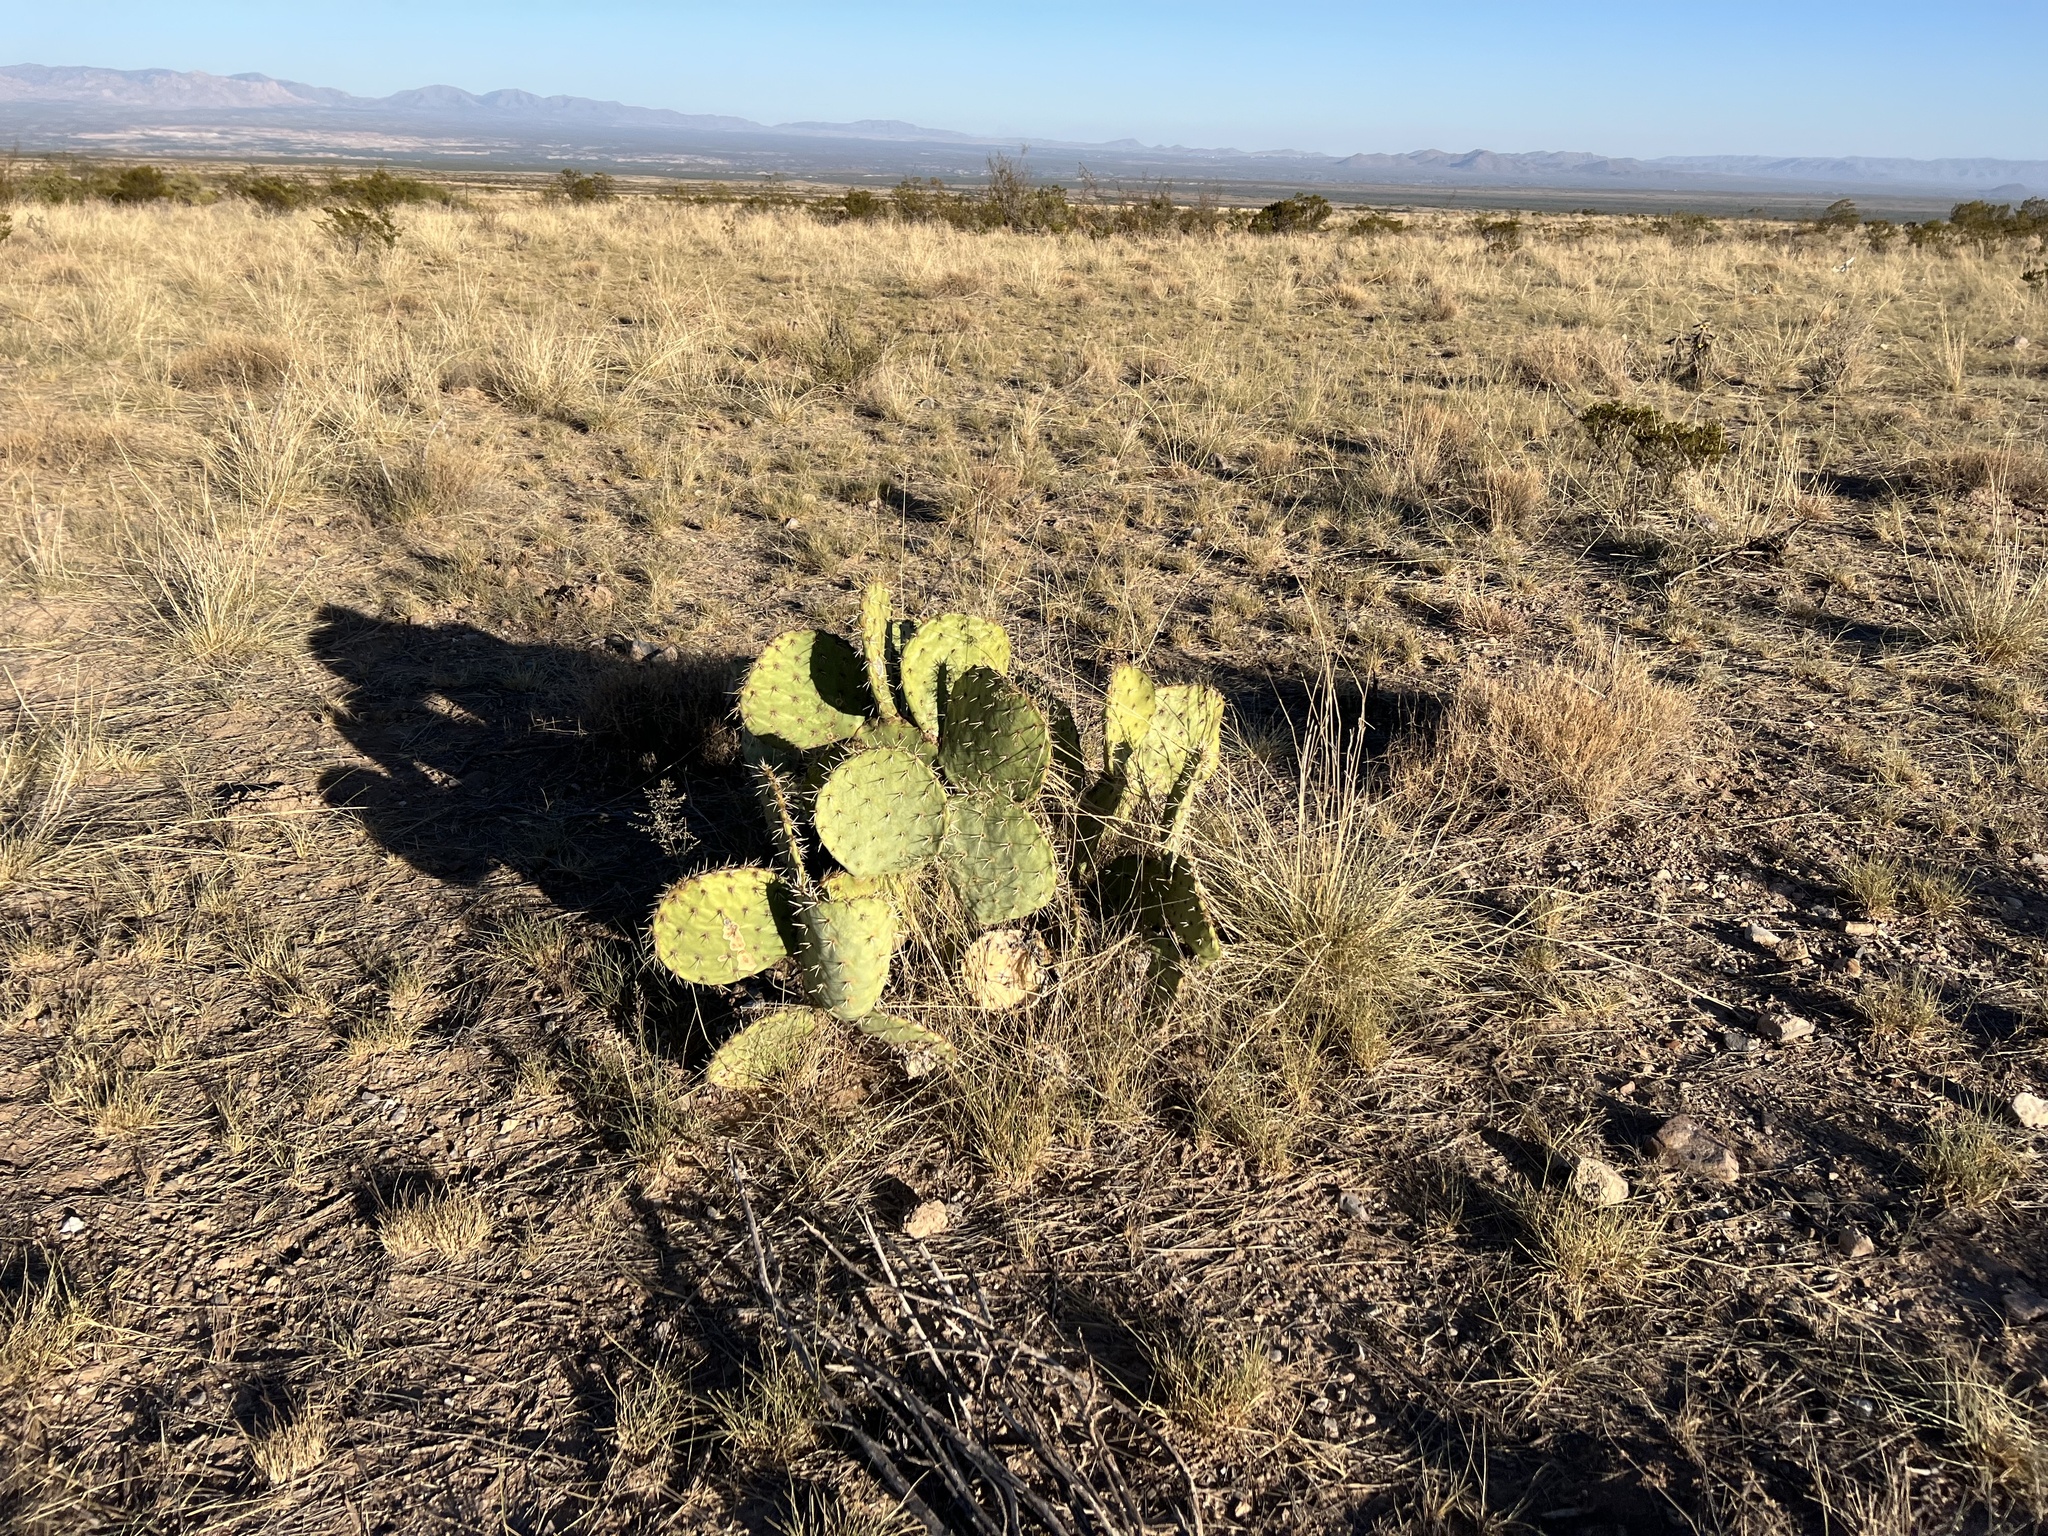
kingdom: Plantae
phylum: Tracheophyta
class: Magnoliopsida
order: Caryophyllales
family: Cactaceae
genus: Opuntia
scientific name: Opuntia engelmannii
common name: Cactus-apple
